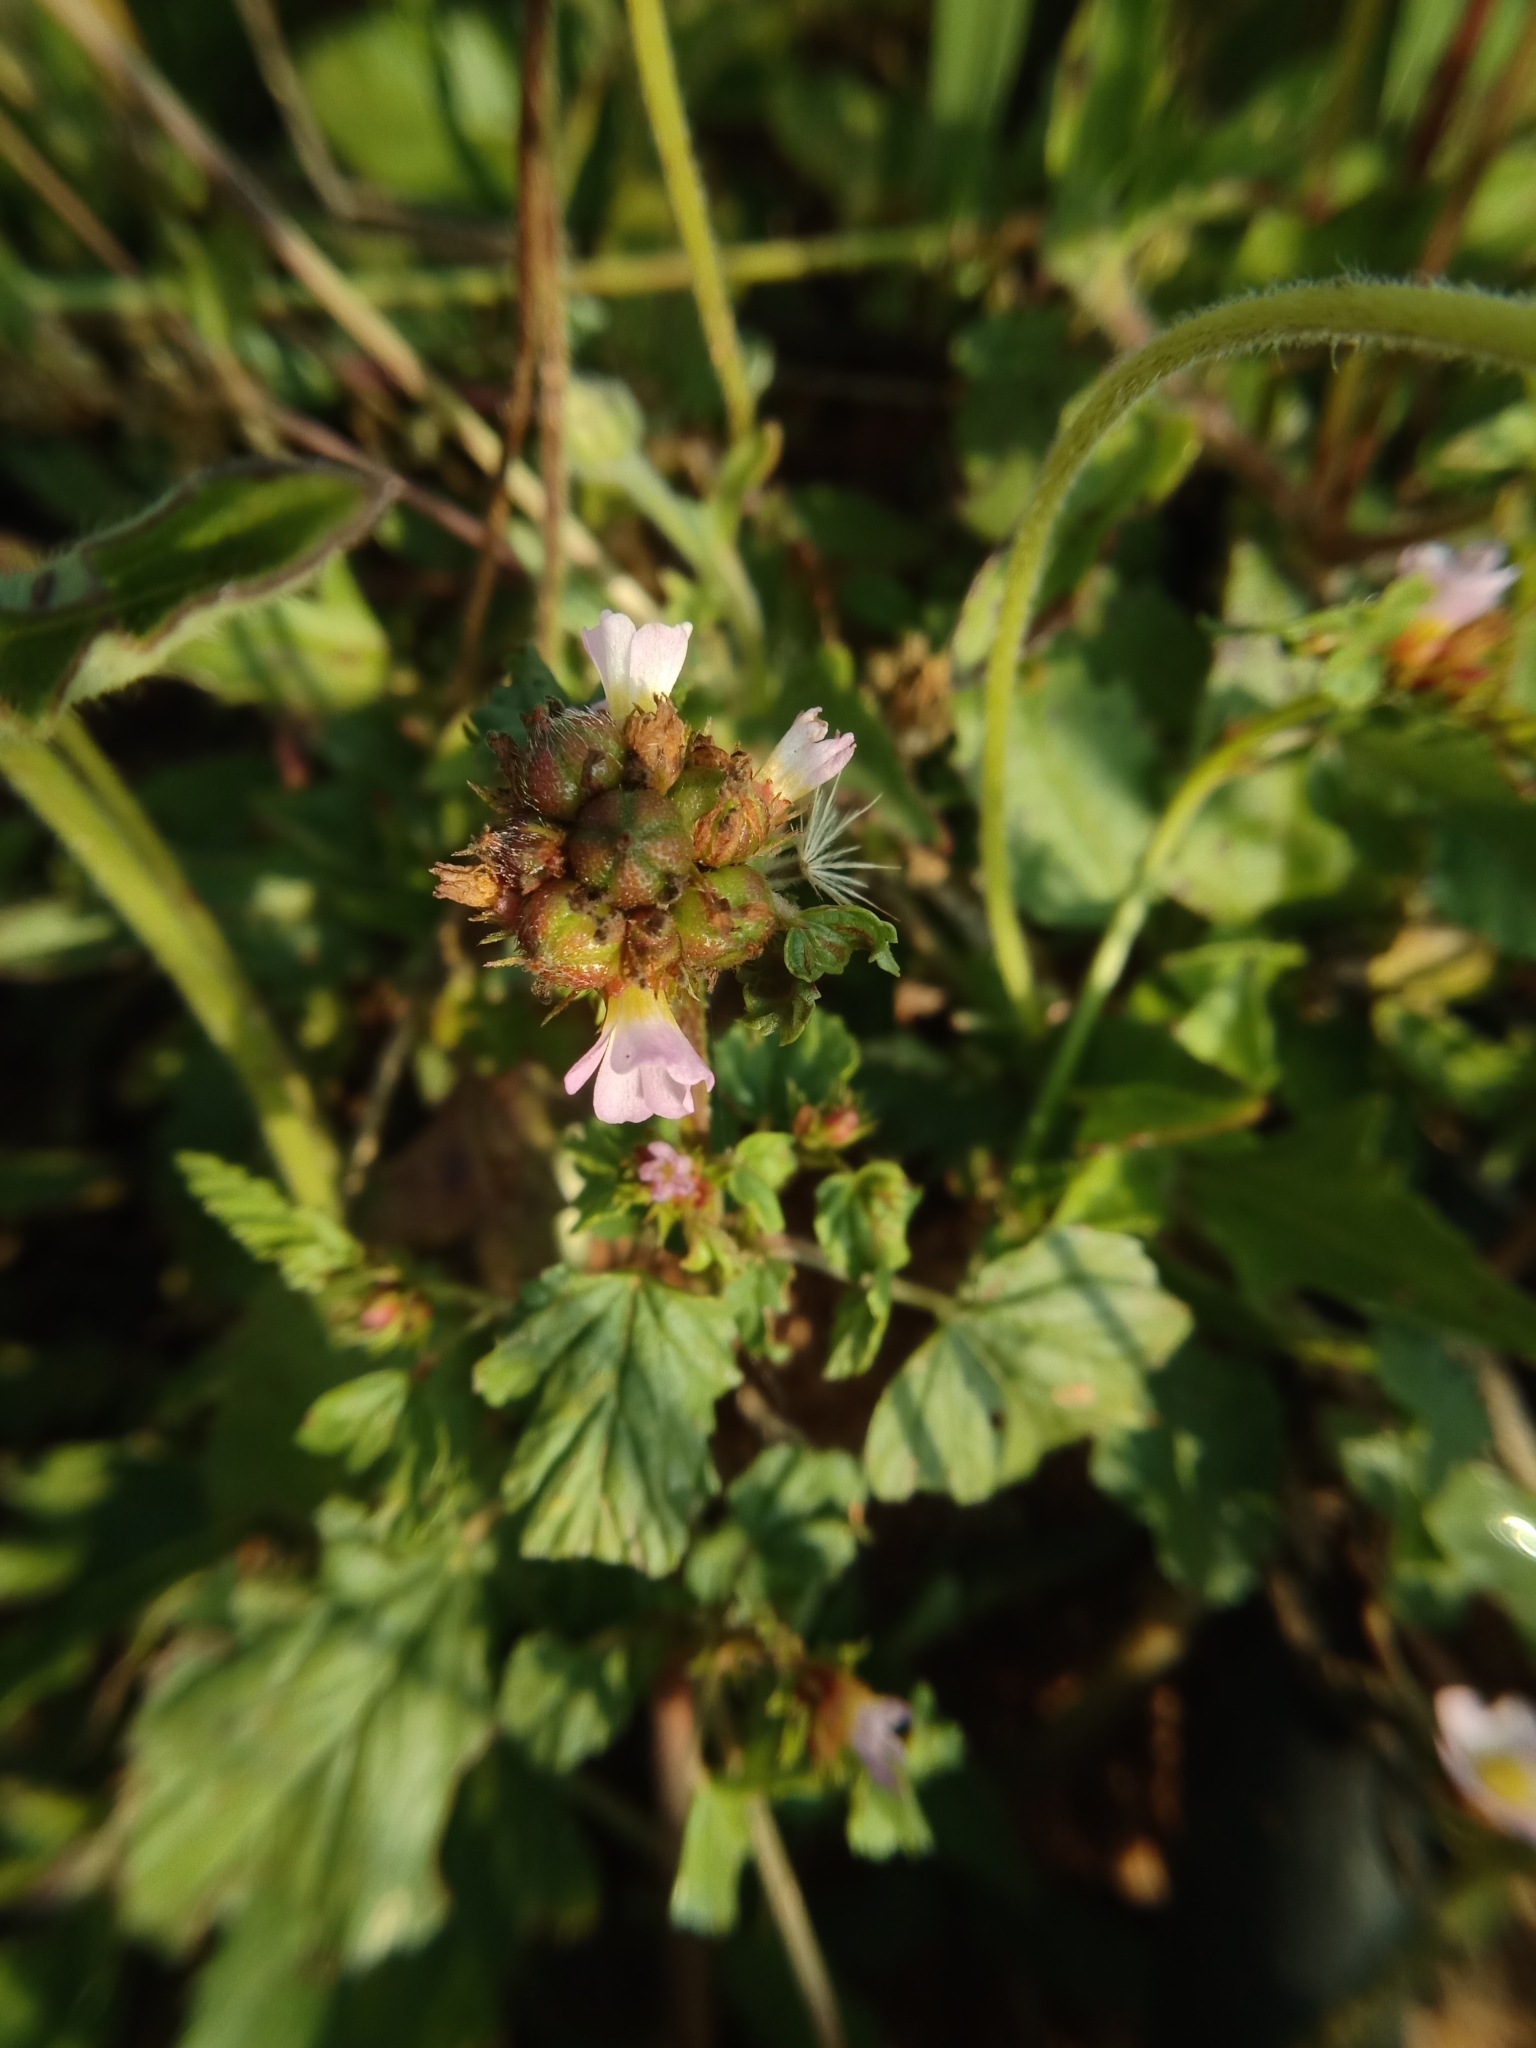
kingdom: Plantae
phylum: Tracheophyta
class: Magnoliopsida
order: Malvales
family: Malvaceae
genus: Melochia
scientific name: Melochia corchorifolia
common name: Chocolateweed
